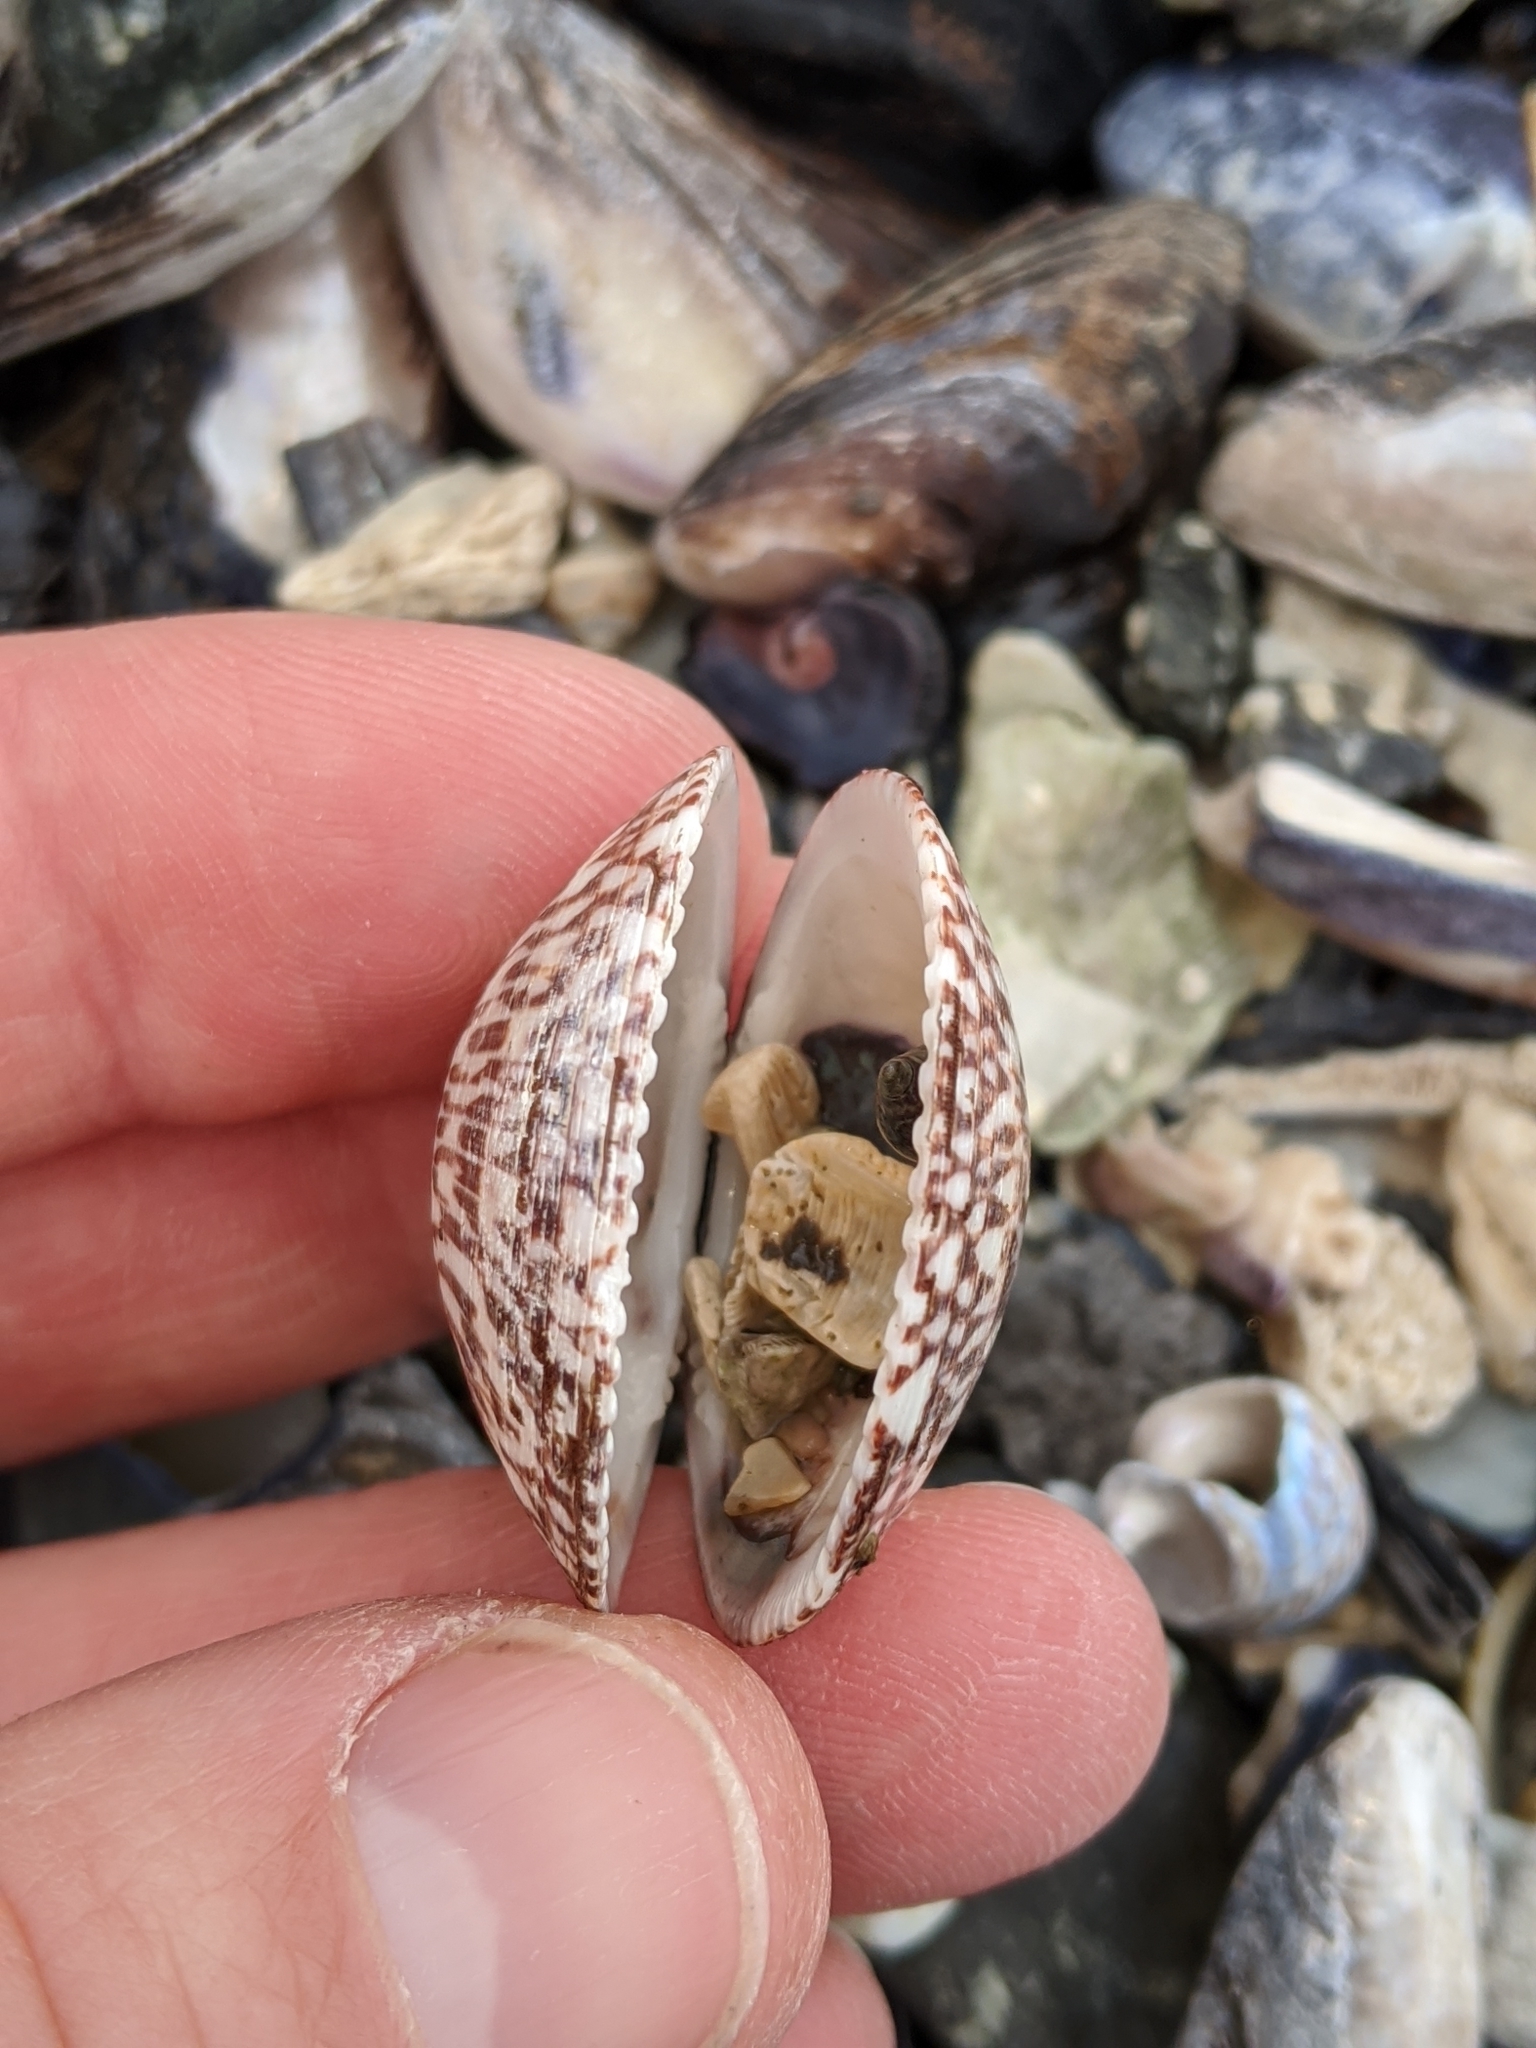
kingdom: Animalia
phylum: Mollusca
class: Bivalvia
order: Arcida
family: Glycymerididae
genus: Glycymeris
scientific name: Glycymeris septentrionalis
